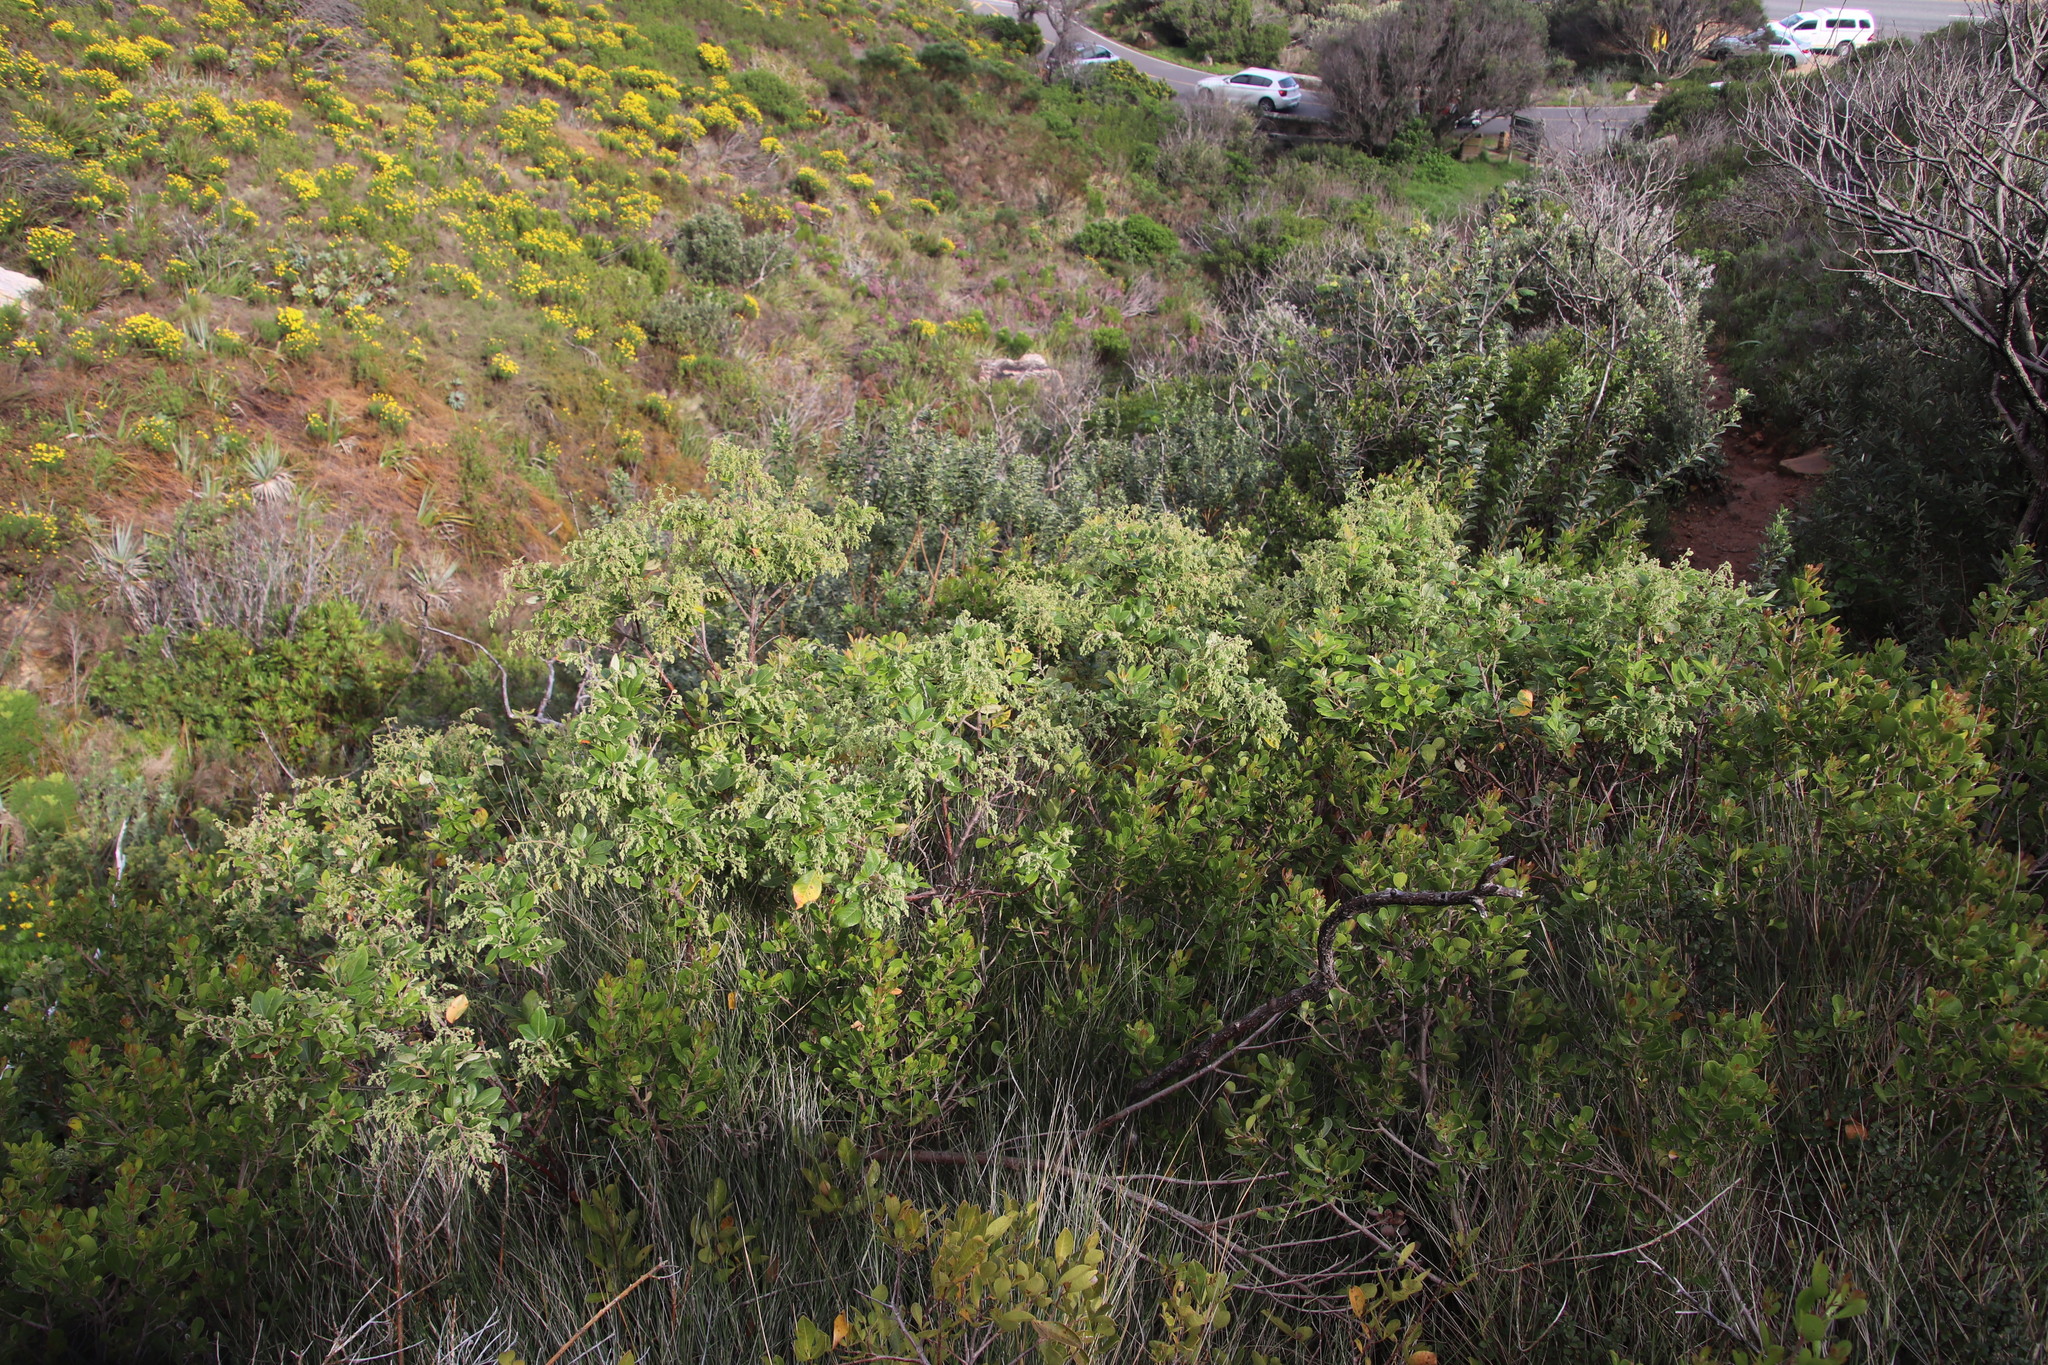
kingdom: Plantae
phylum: Tracheophyta
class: Magnoliopsida
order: Sapindales
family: Anacardiaceae
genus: Searsia
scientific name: Searsia tomentosa
